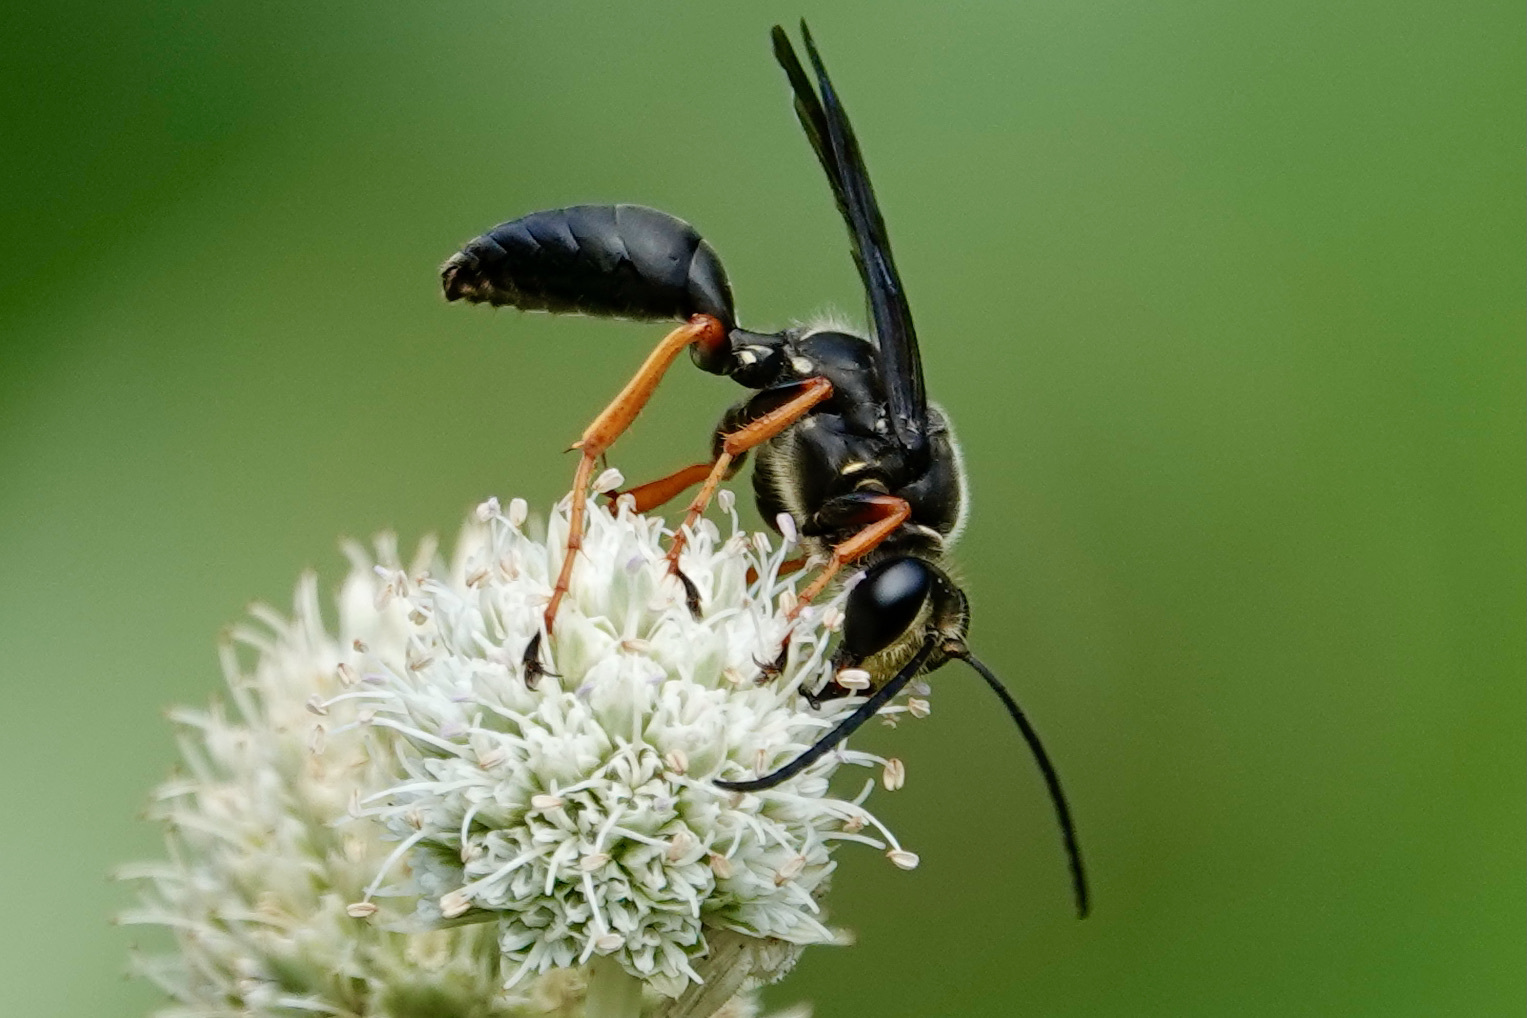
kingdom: Animalia
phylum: Arthropoda
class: Insecta
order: Hymenoptera
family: Sphecidae
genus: Sphex
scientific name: Sphex nudus
